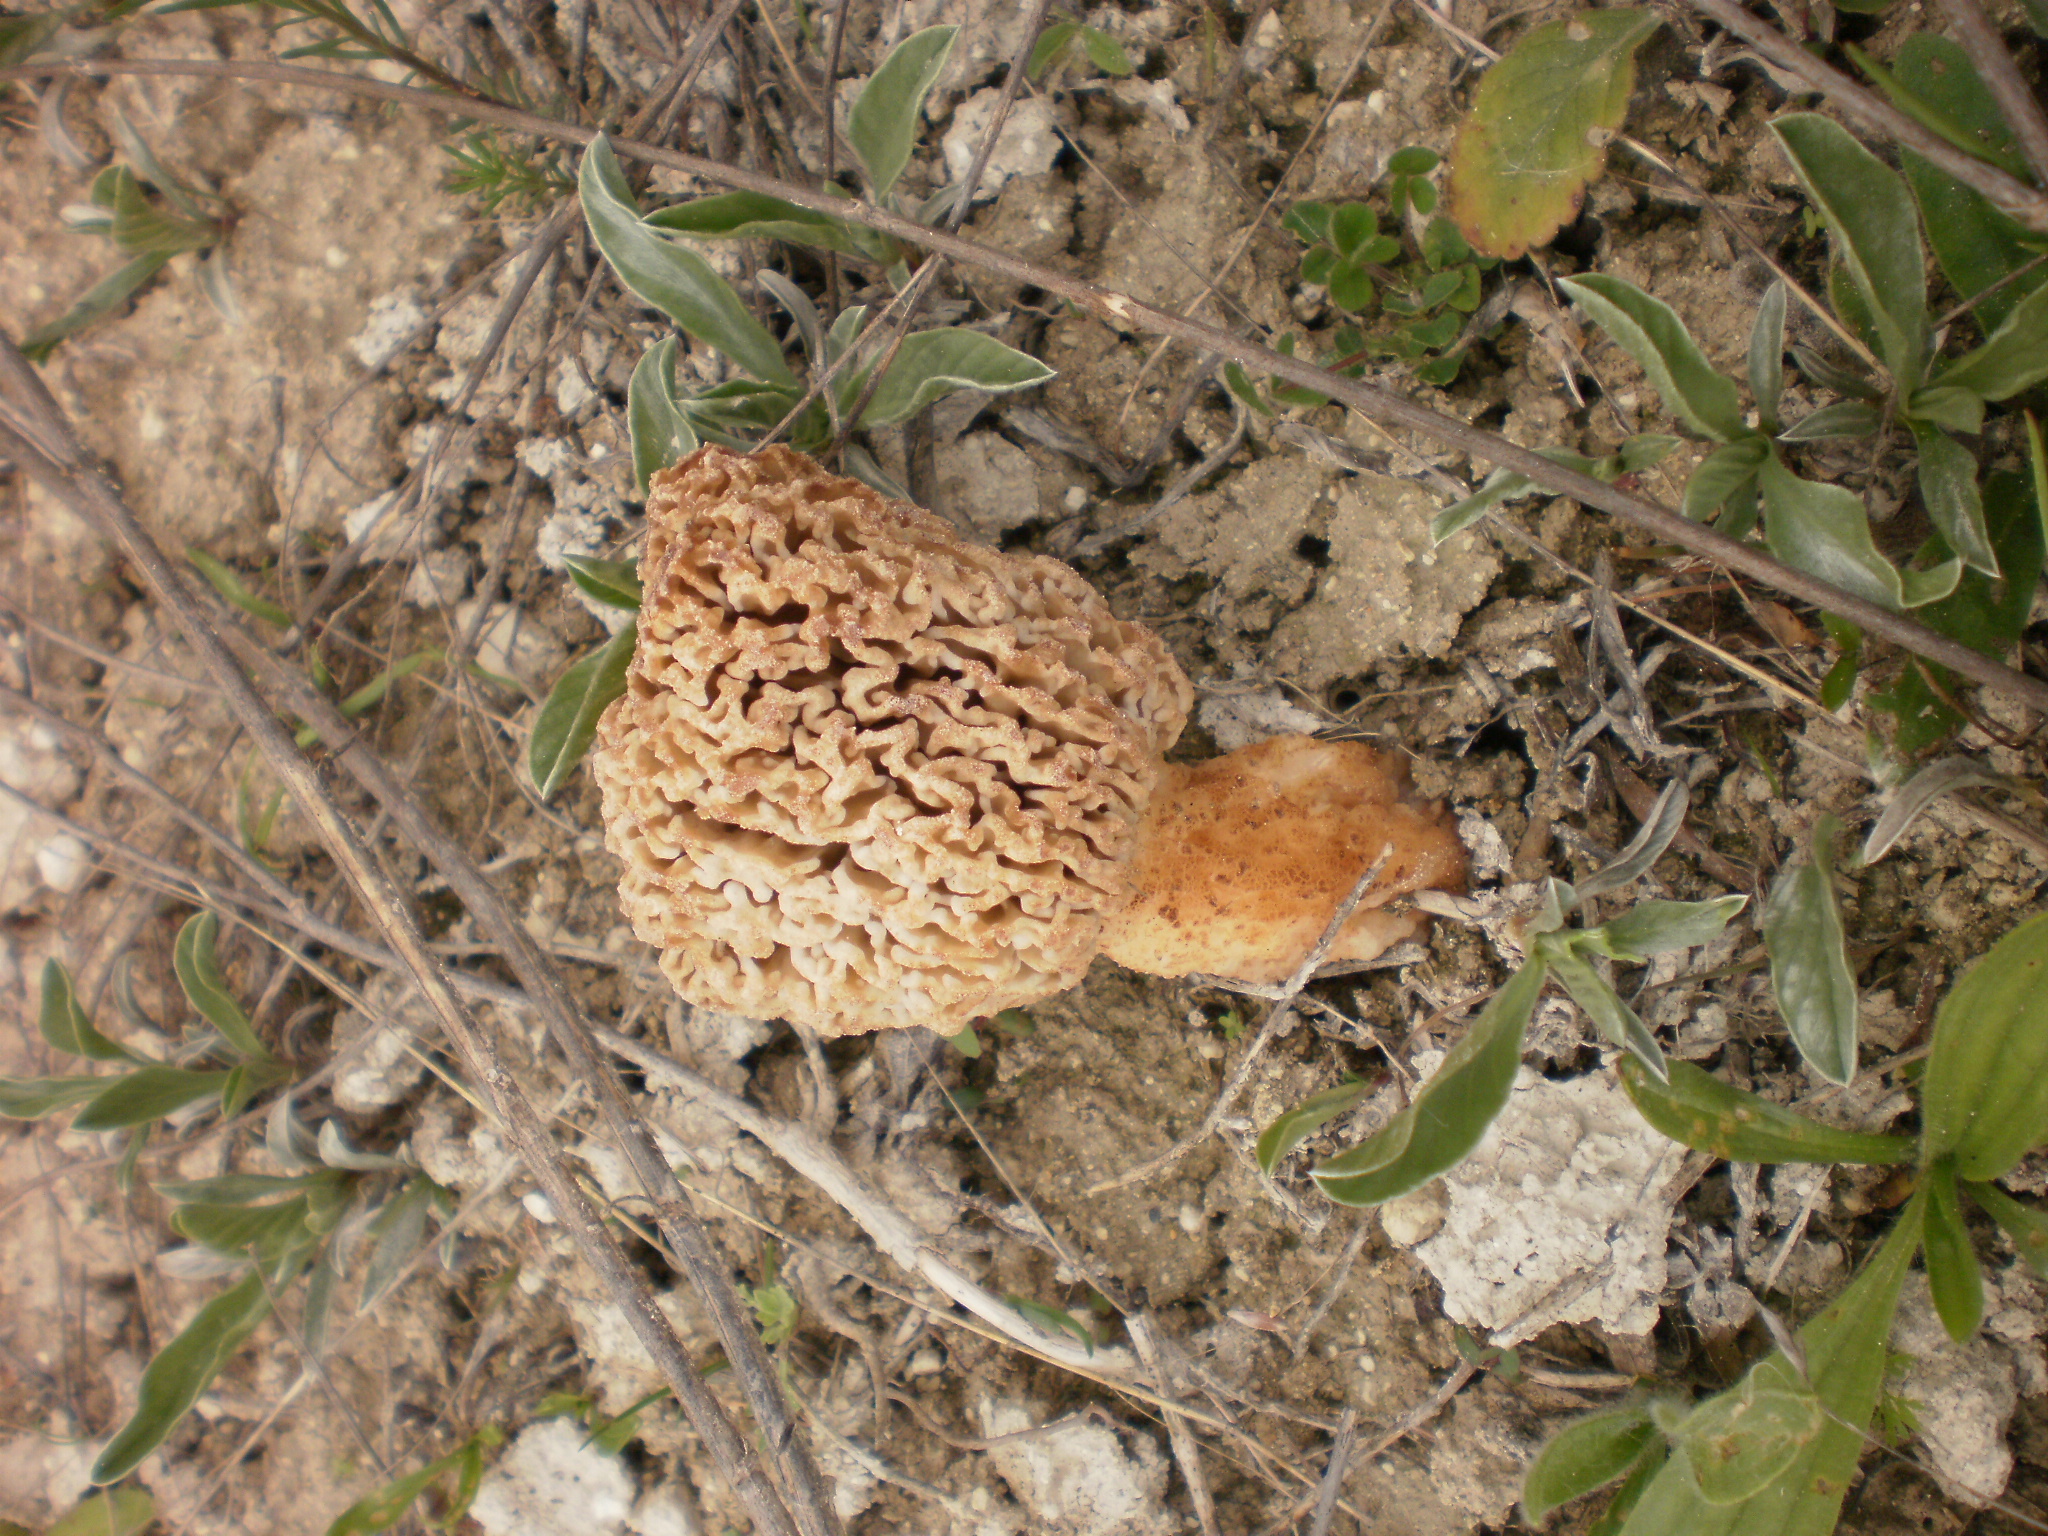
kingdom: Fungi
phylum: Ascomycota
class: Pezizomycetes
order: Pezizales
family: Morchellaceae
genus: Morchella
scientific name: Morchella steppicola
